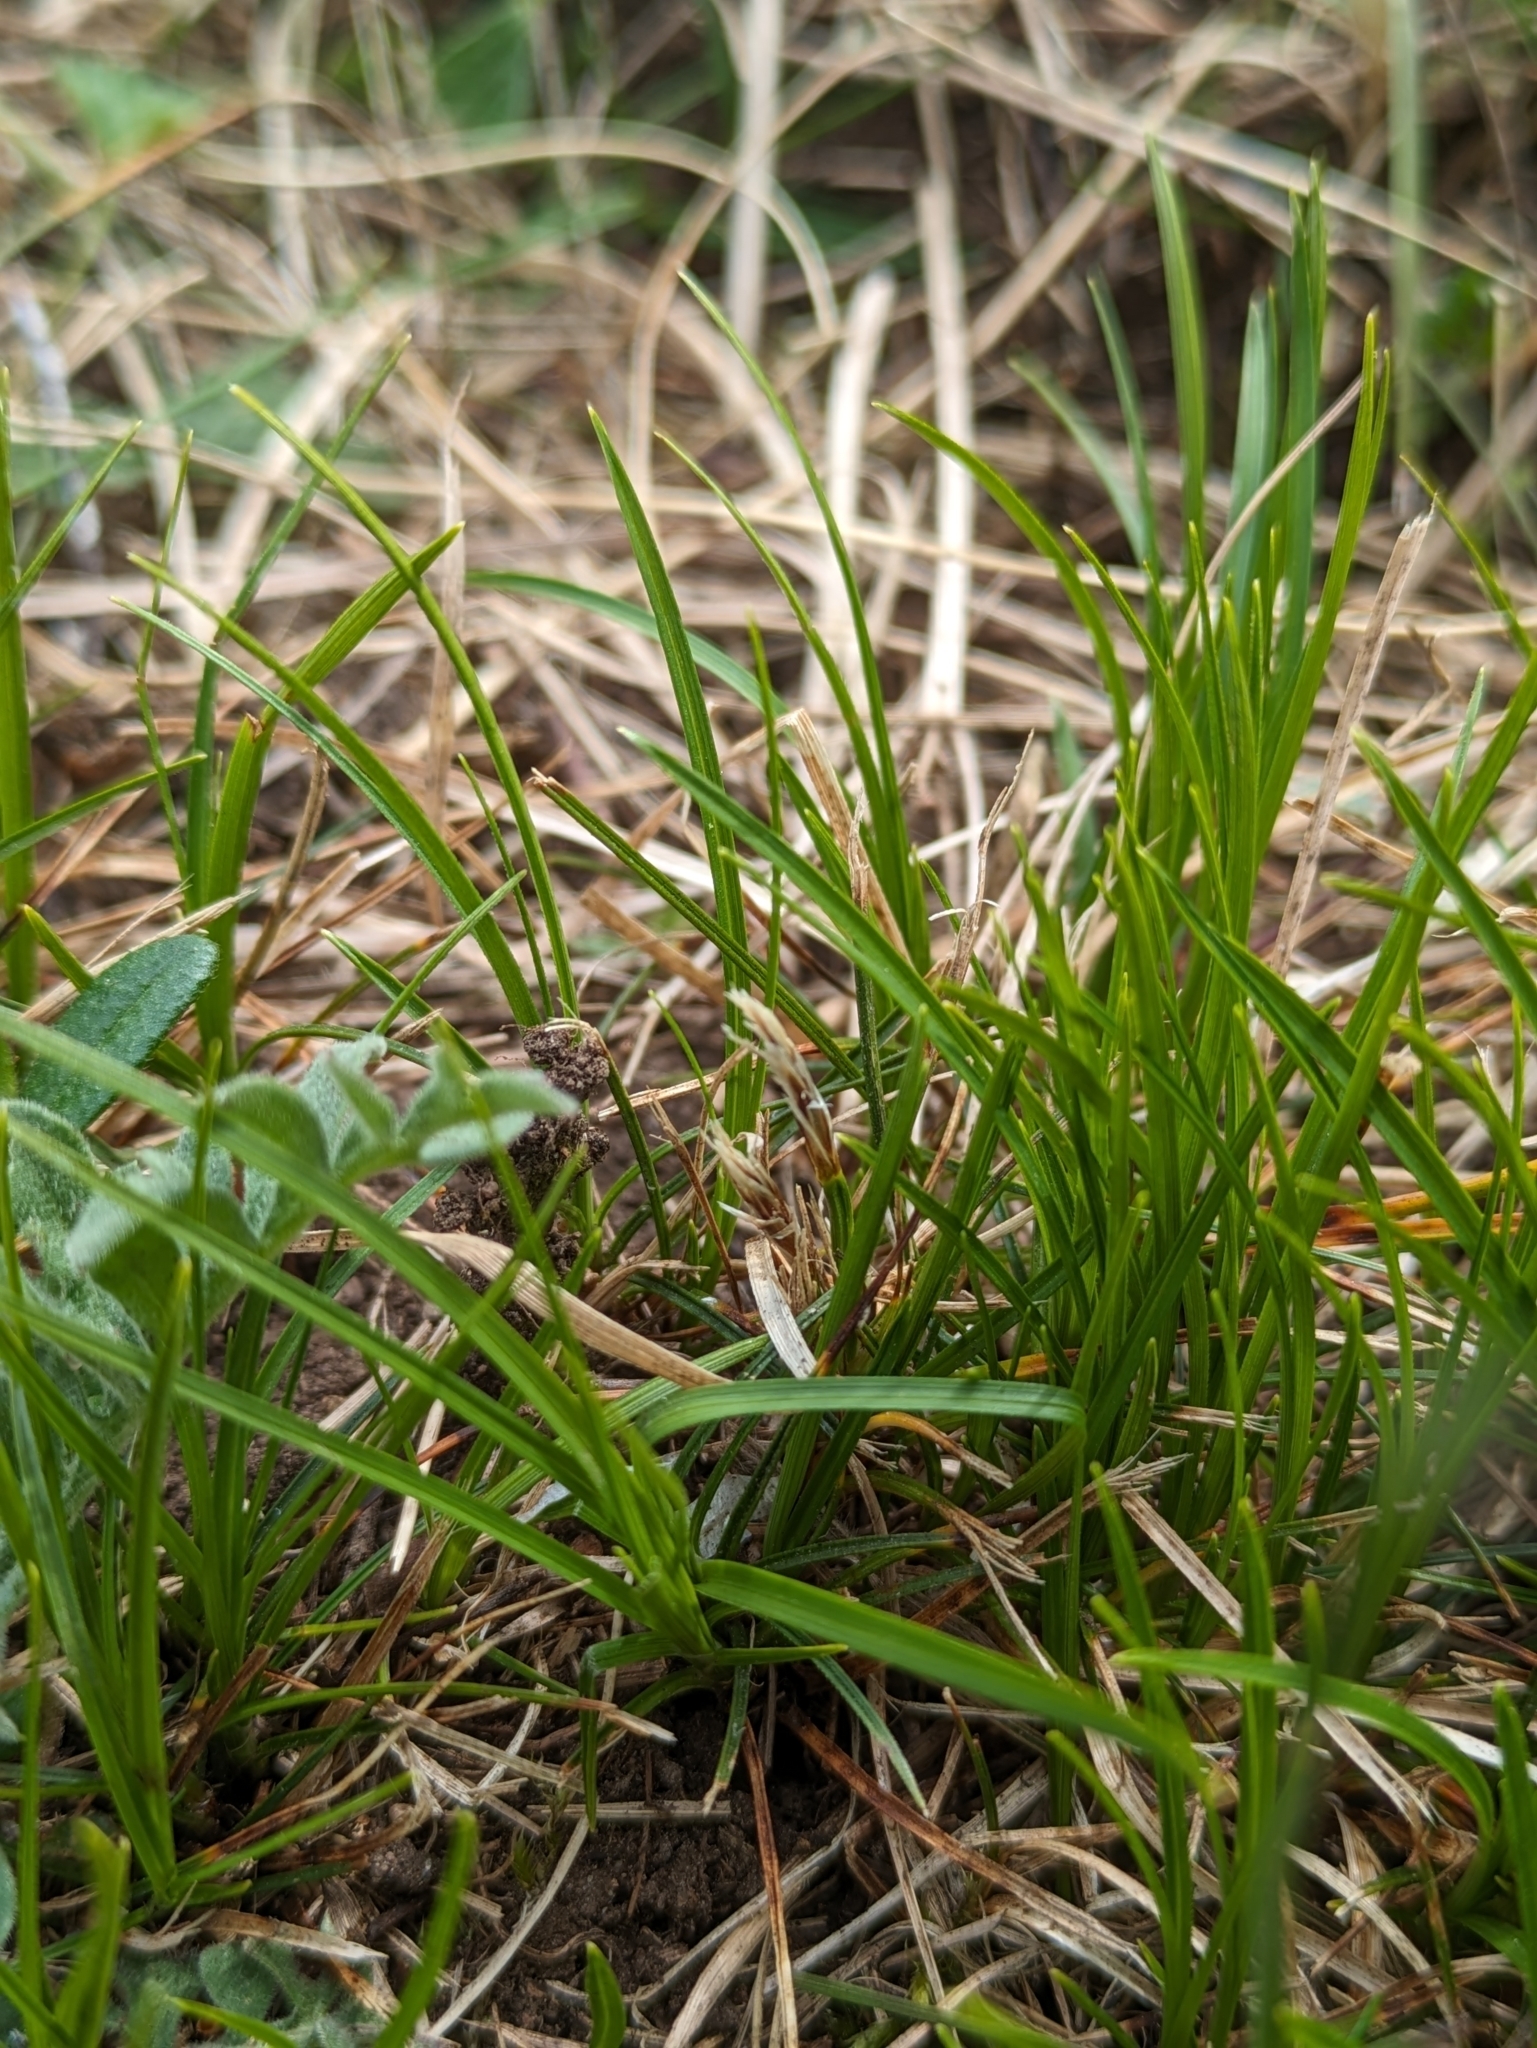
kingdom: Plantae
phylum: Tracheophyta
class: Liliopsida
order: Poales
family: Cyperaceae
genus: Carex
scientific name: Carex humilis
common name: Dwarf sedge
